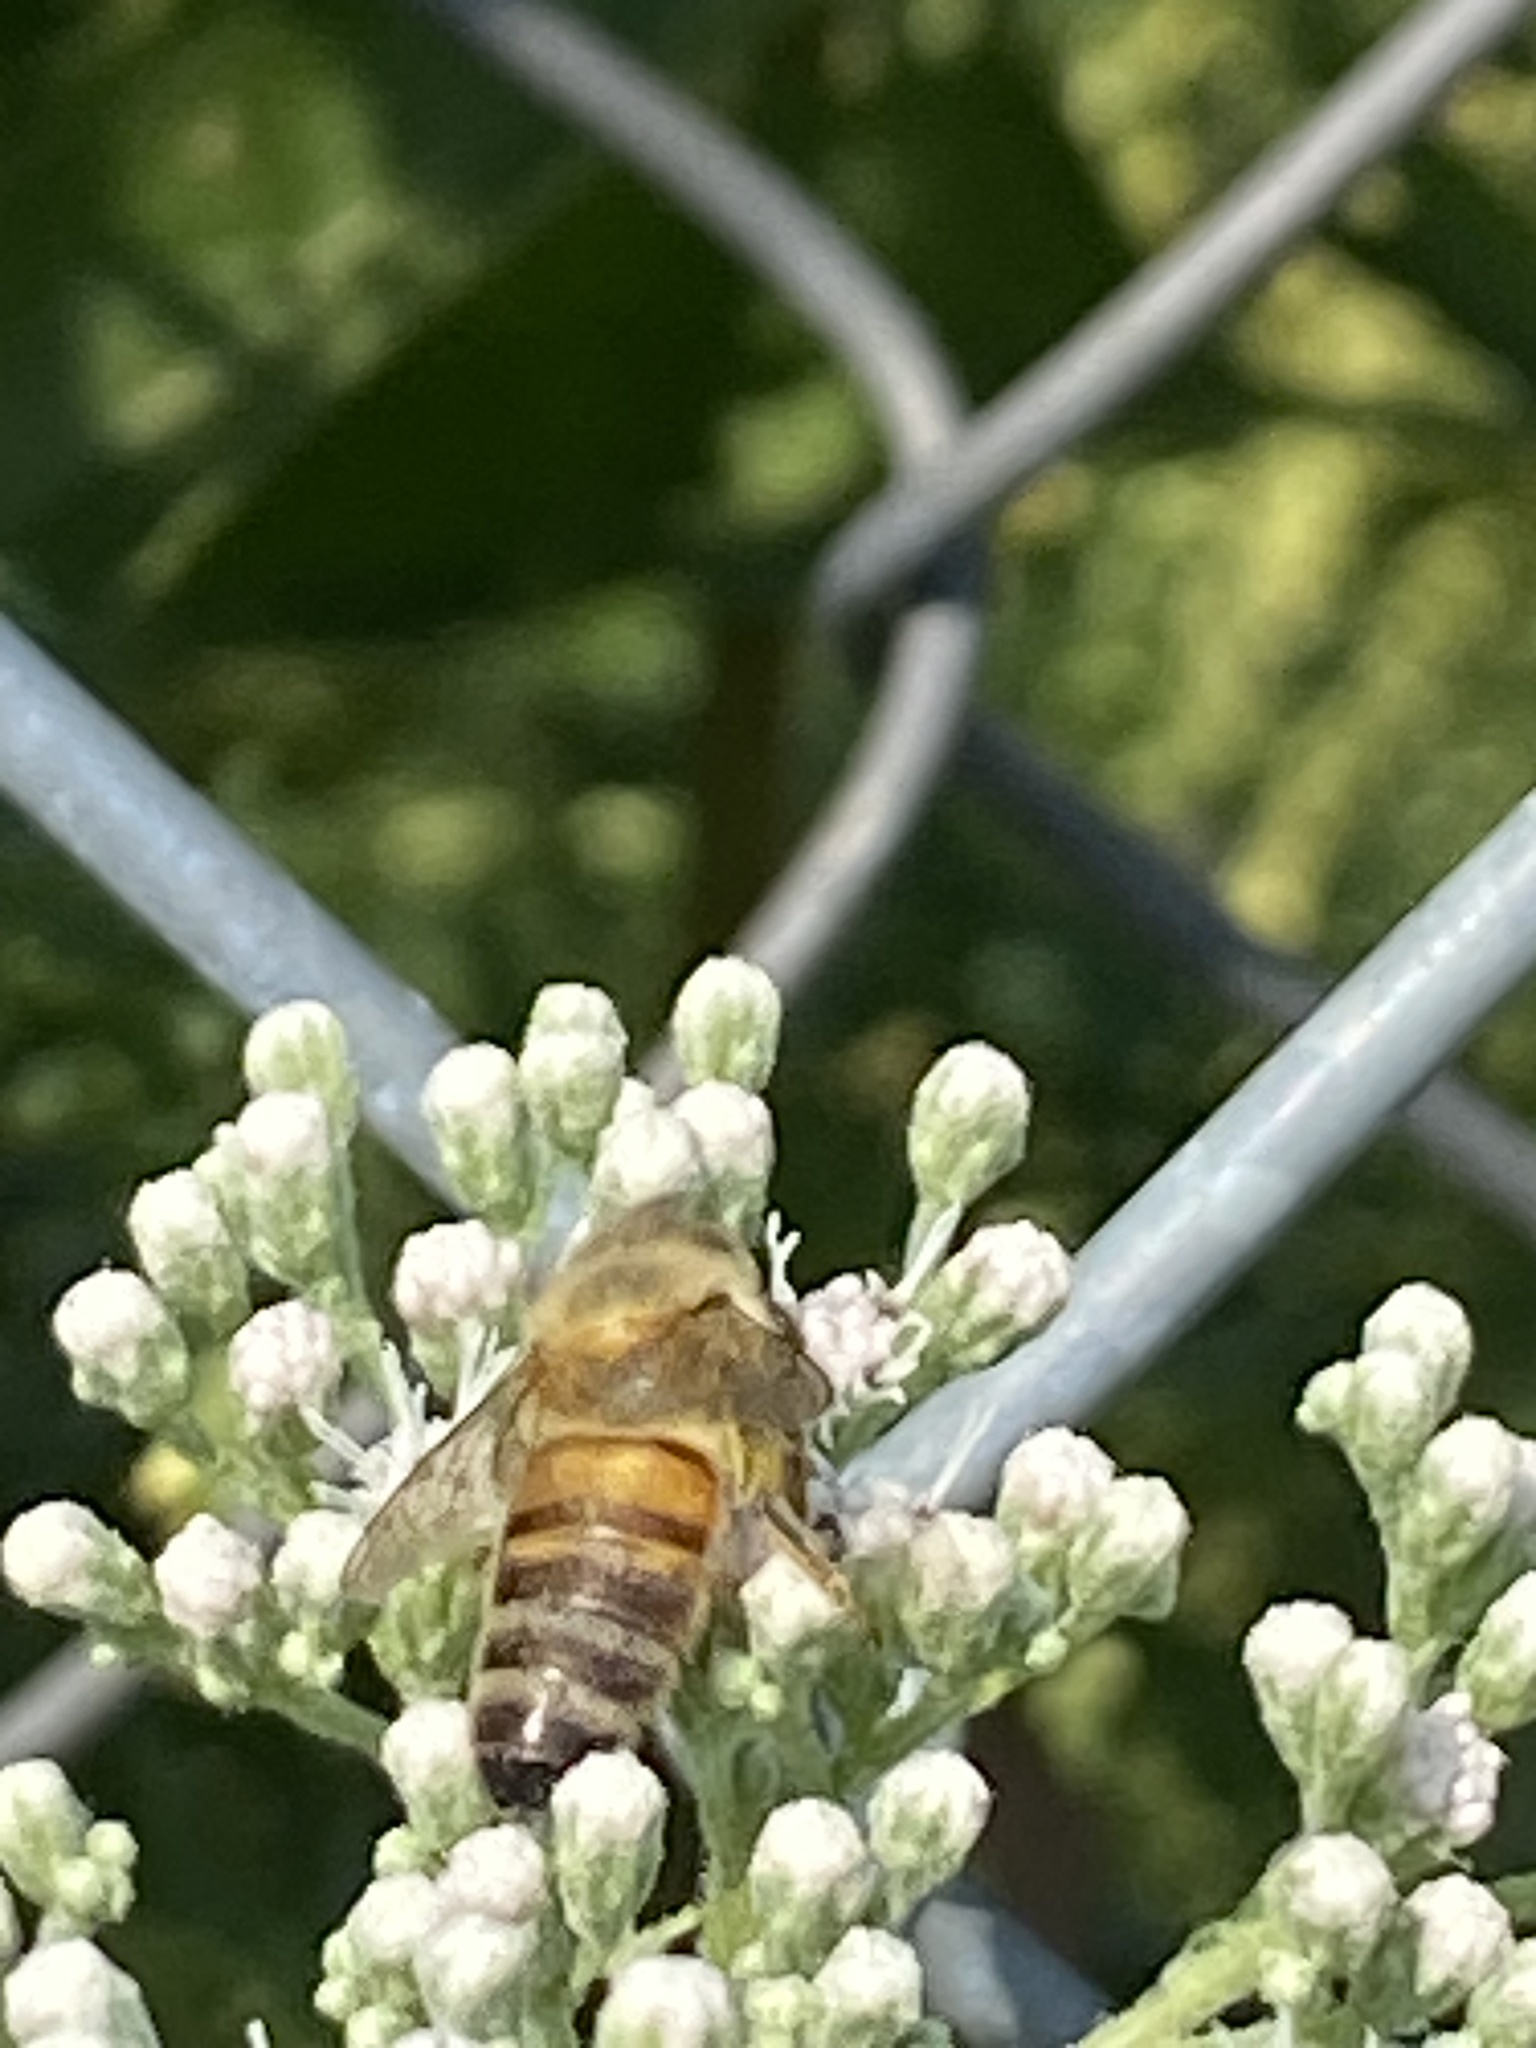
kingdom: Animalia
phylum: Arthropoda
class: Insecta
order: Hymenoptera
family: Apidae
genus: Apis
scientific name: Apis mellifera
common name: Honey bee
